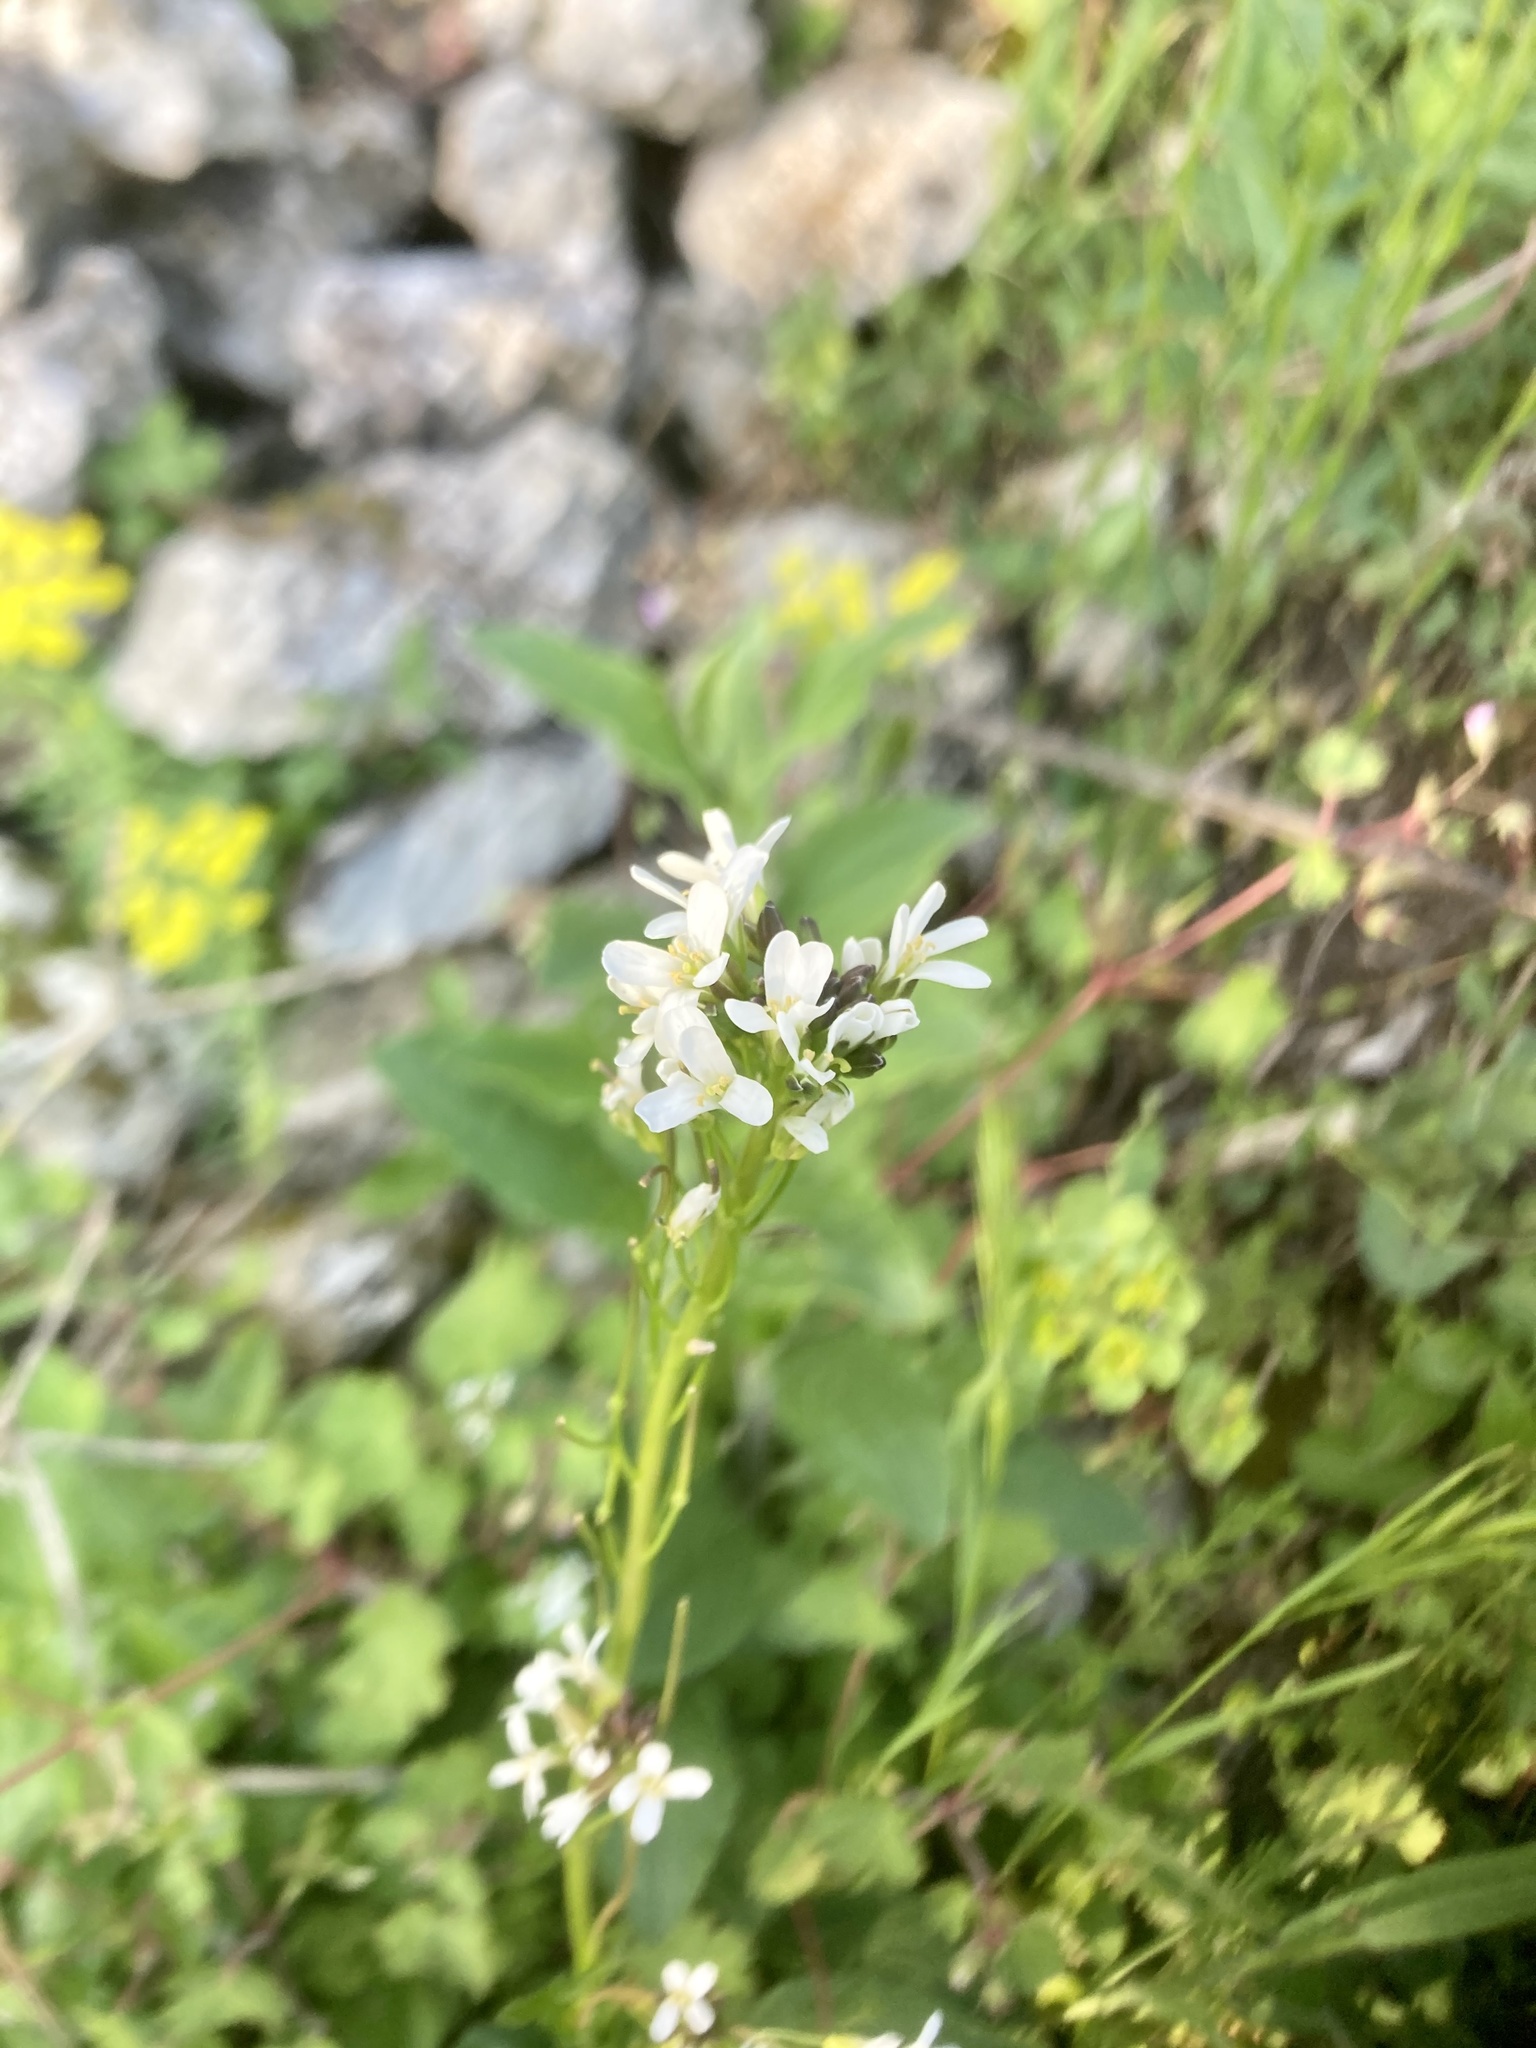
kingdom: Plantae
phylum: Tracheophyta
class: Magnoliopsida
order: Brassicales
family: Brassicaceae
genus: Arabis
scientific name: Arabis hirsuta
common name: Hairy rock-cress
